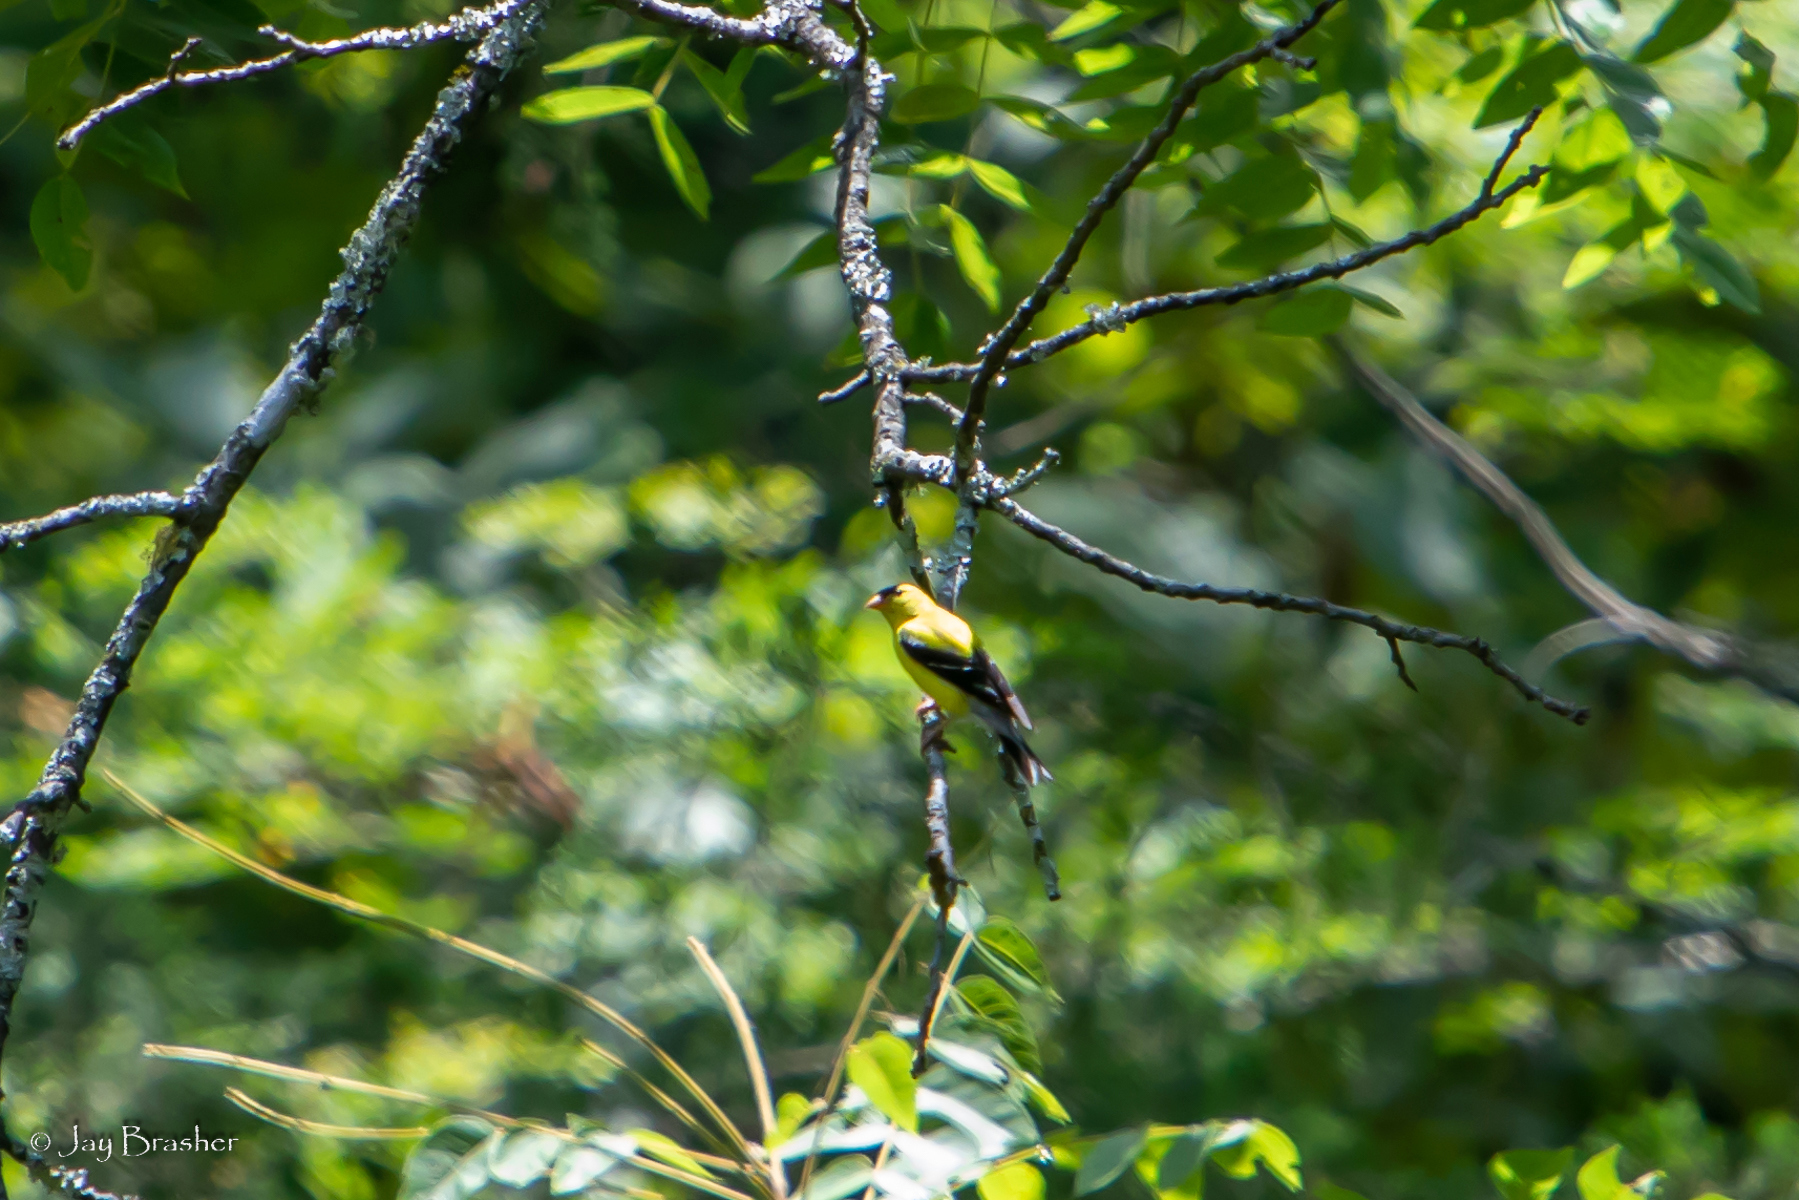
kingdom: Animalia
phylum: Chordata
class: Aves
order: Passeriformes
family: Fringillidae
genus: Spinus
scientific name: Spinus tristis
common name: American goldfinch
